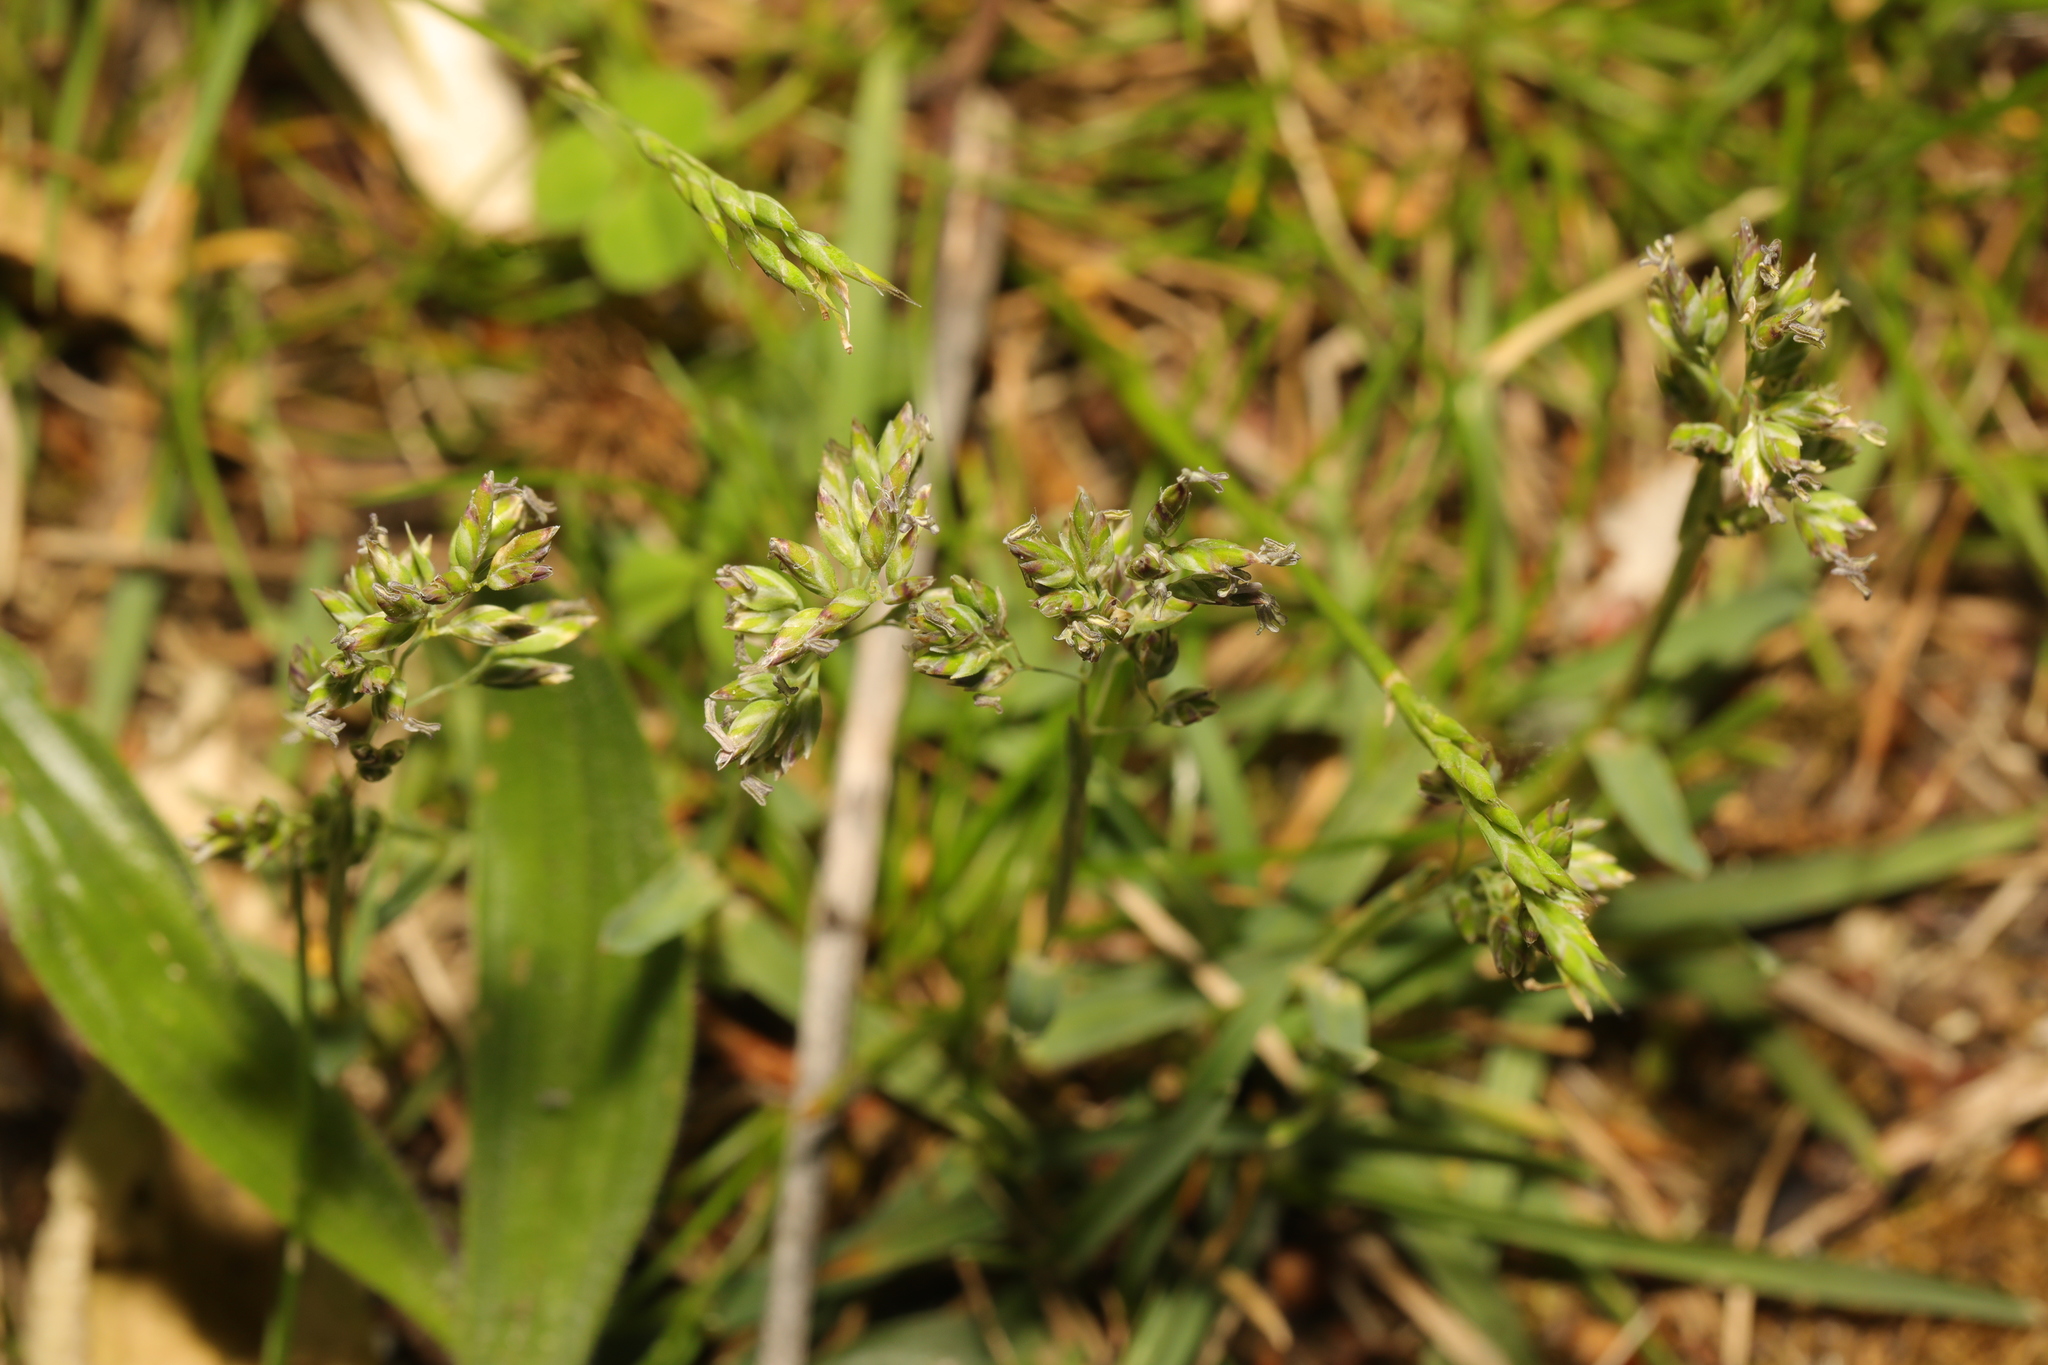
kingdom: Plantae
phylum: Tracheophyta
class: Liliopsida
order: Poales
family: Poaceae
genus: Poa
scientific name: Poa annua
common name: Annual bluegrass
